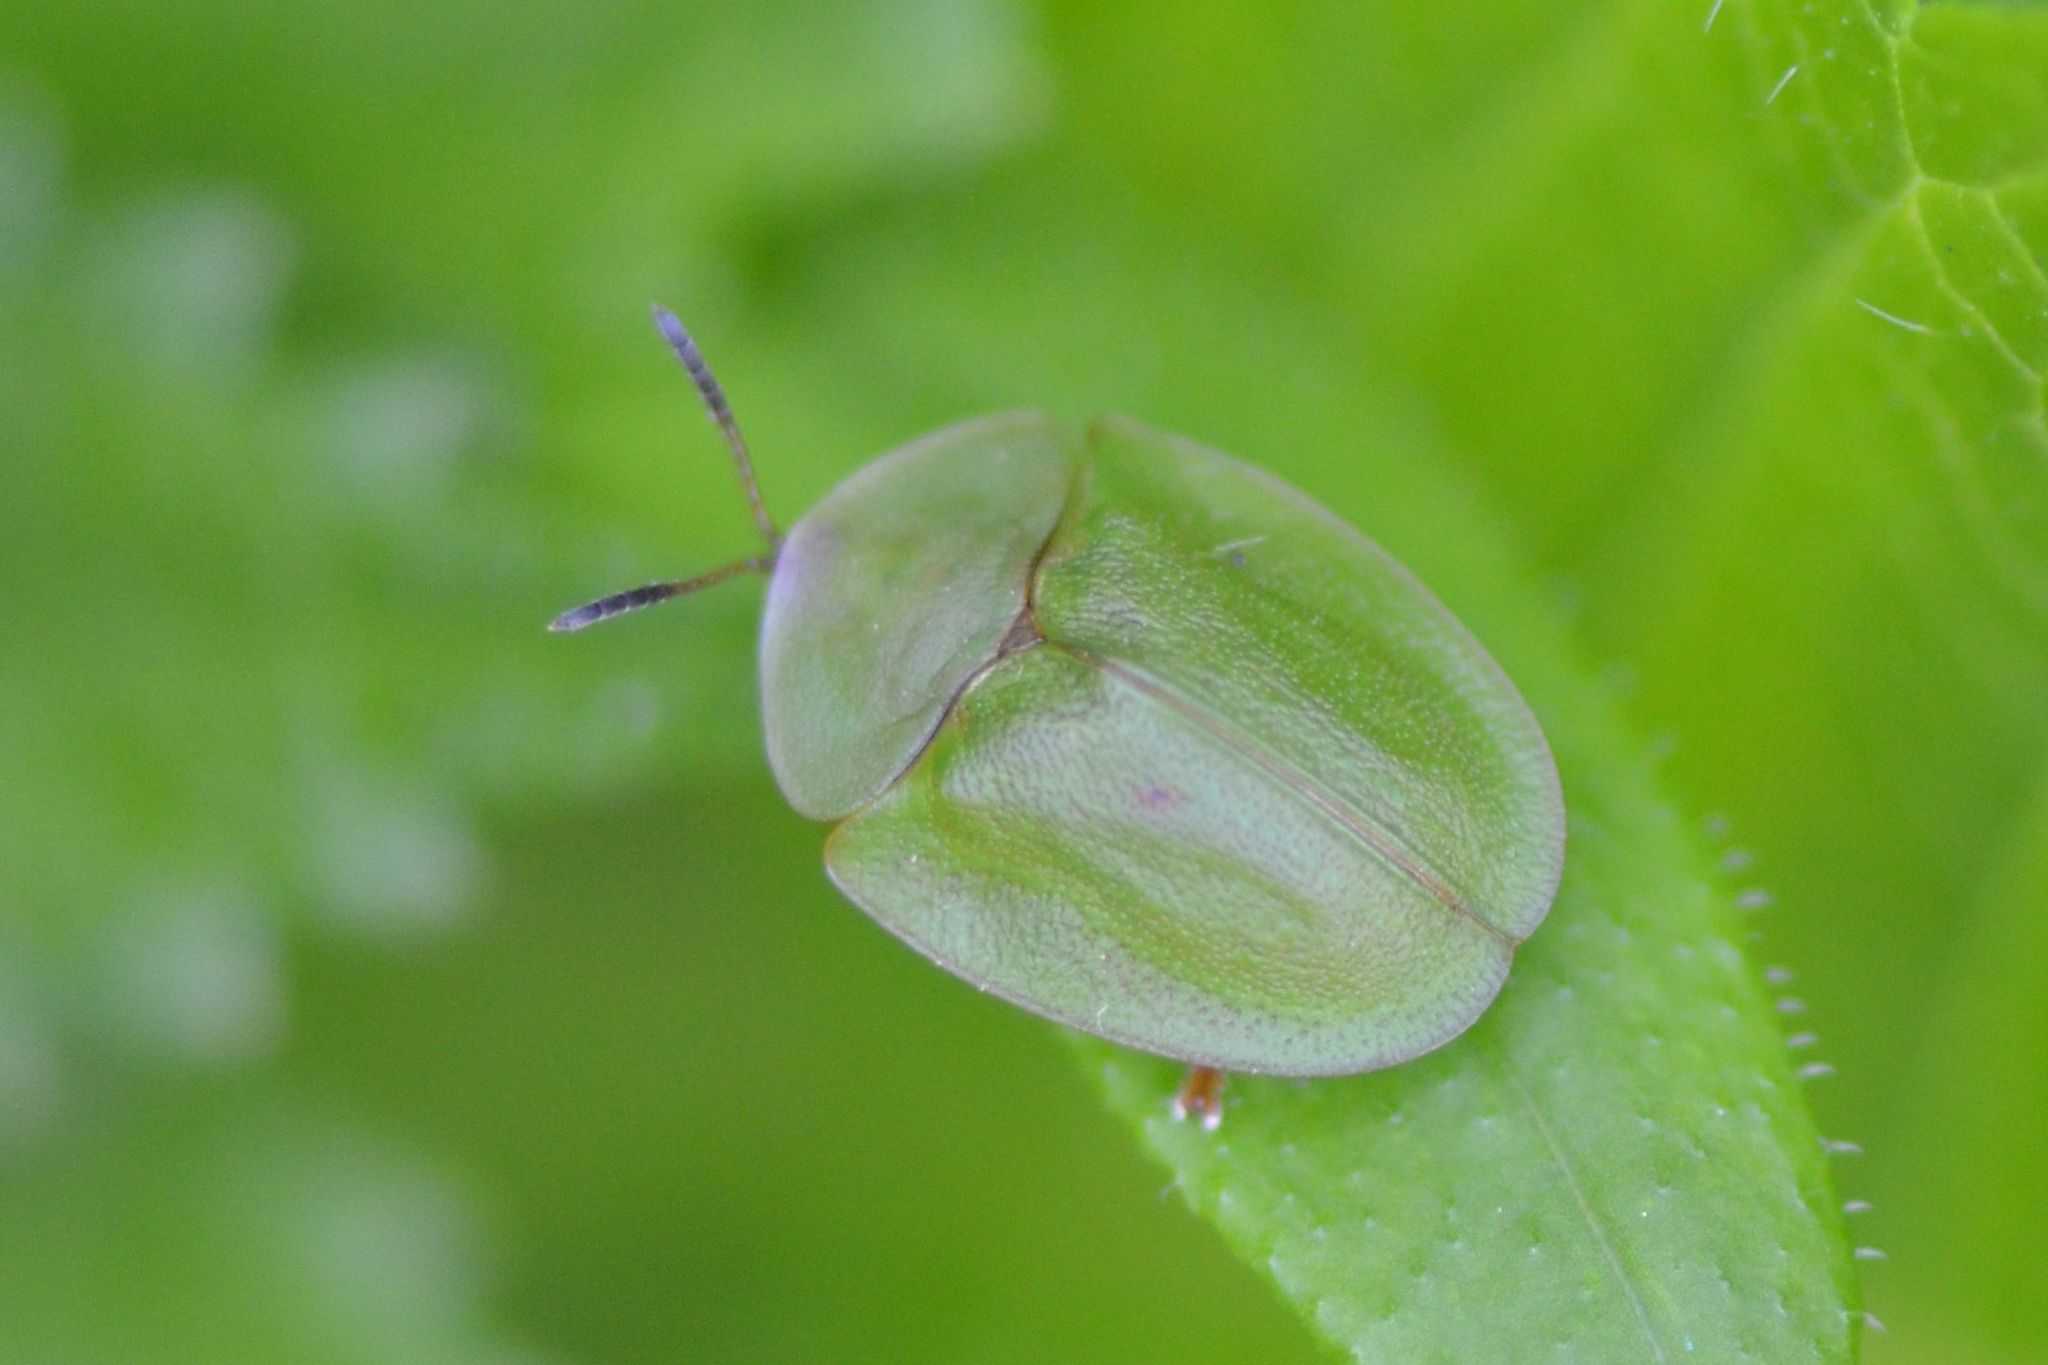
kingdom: Animalia
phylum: Arthropoda
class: Insecta
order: Coleoptera
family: Chrysomelidae
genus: Cassida
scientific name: Cassida viridis
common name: Green tortoise beetle
